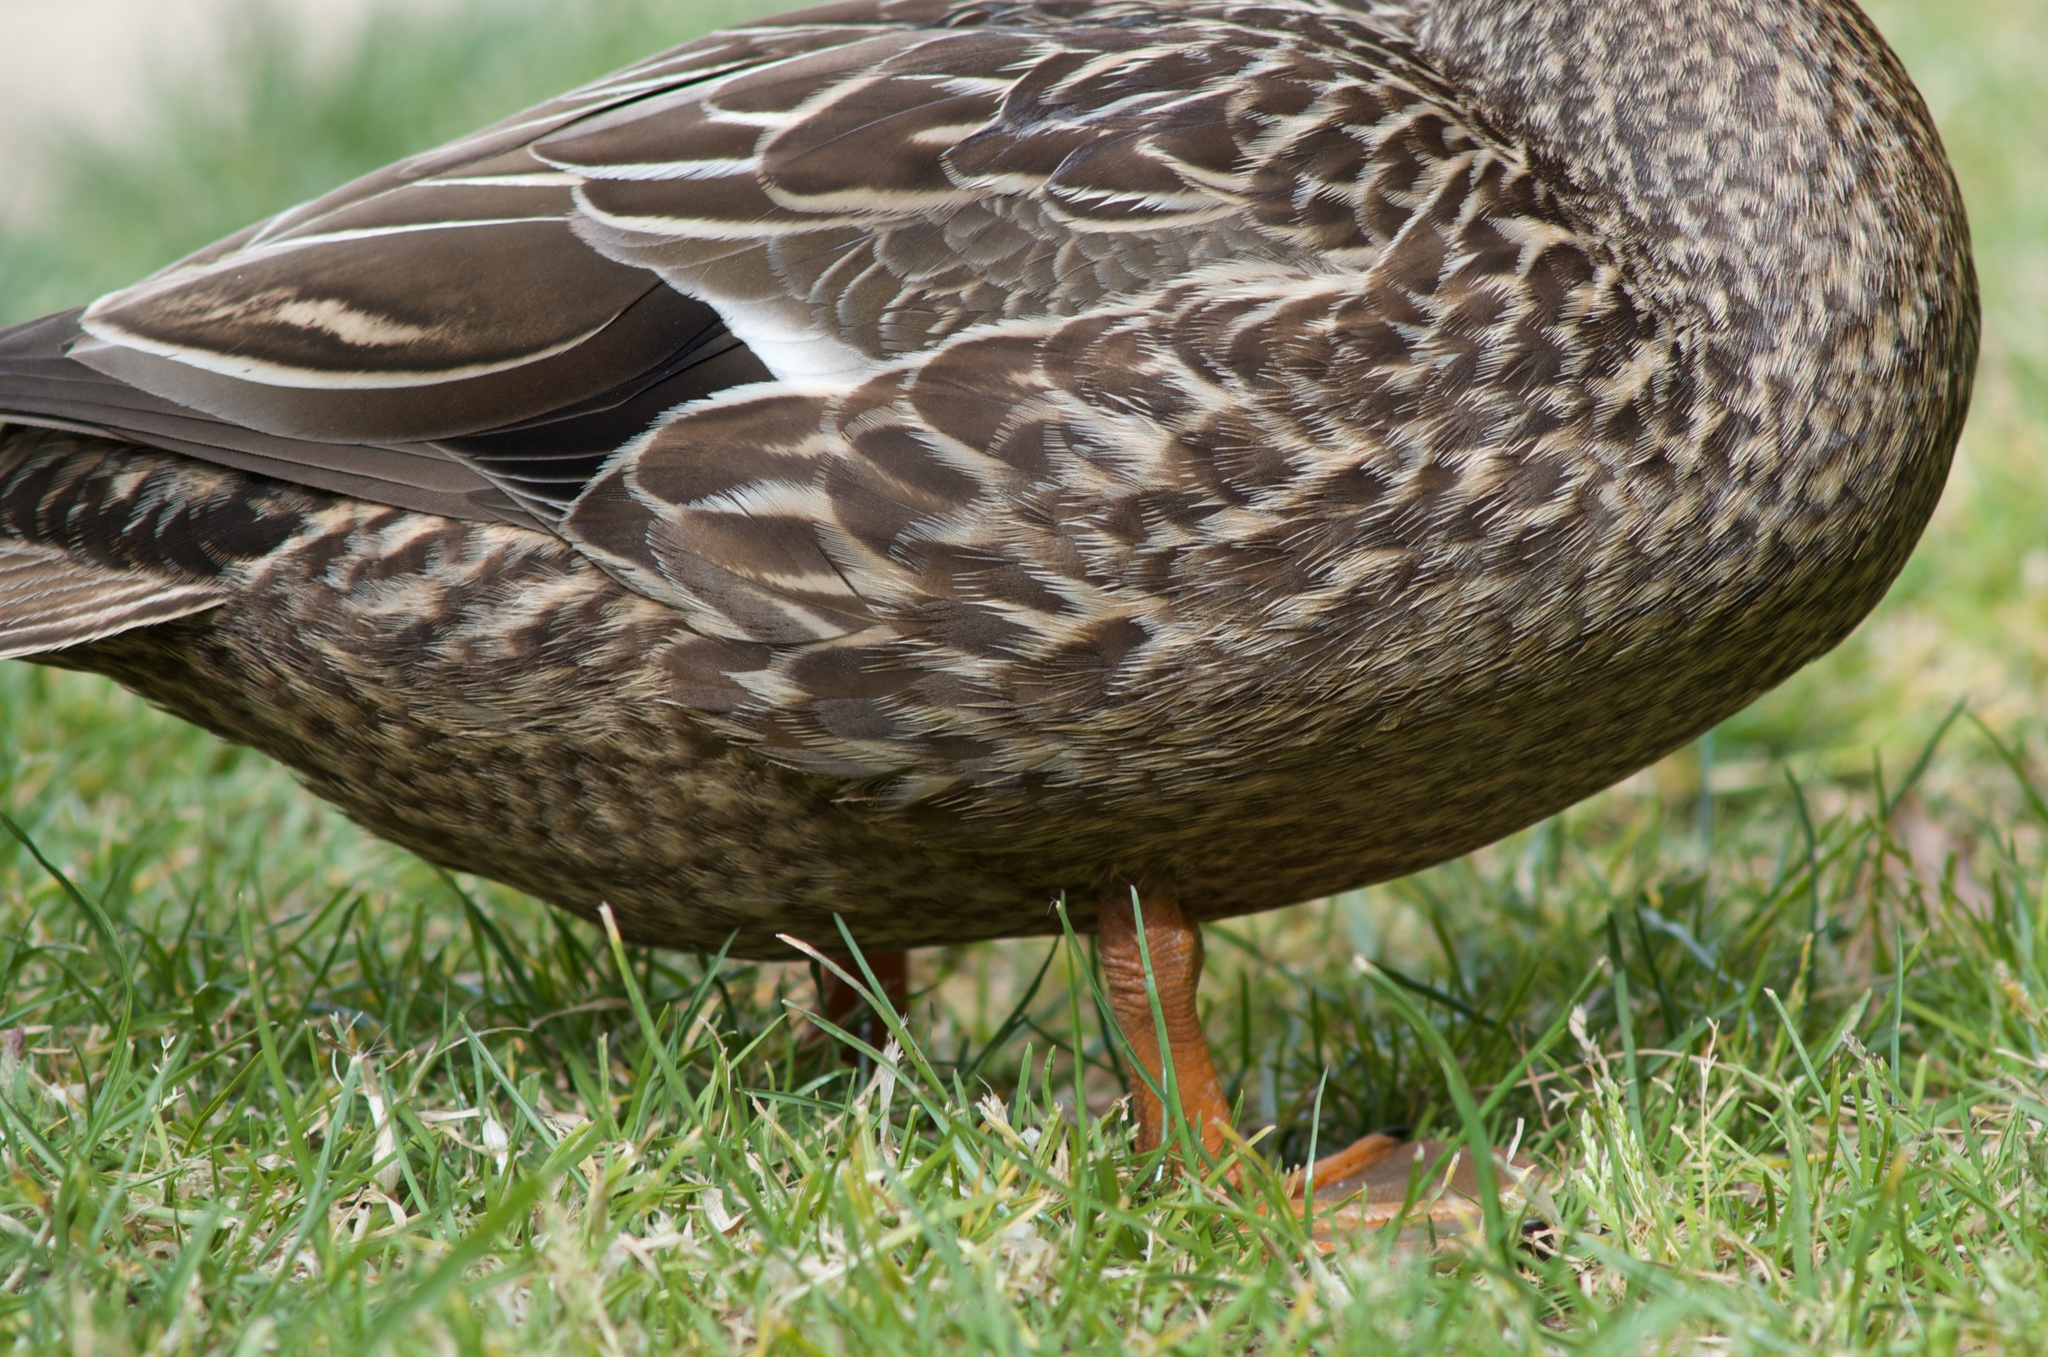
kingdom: Animalia
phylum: Chordata
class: Aves
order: Anseriformes
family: Anatidae
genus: Anas
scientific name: Anas platyrhynchos
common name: Mallard
